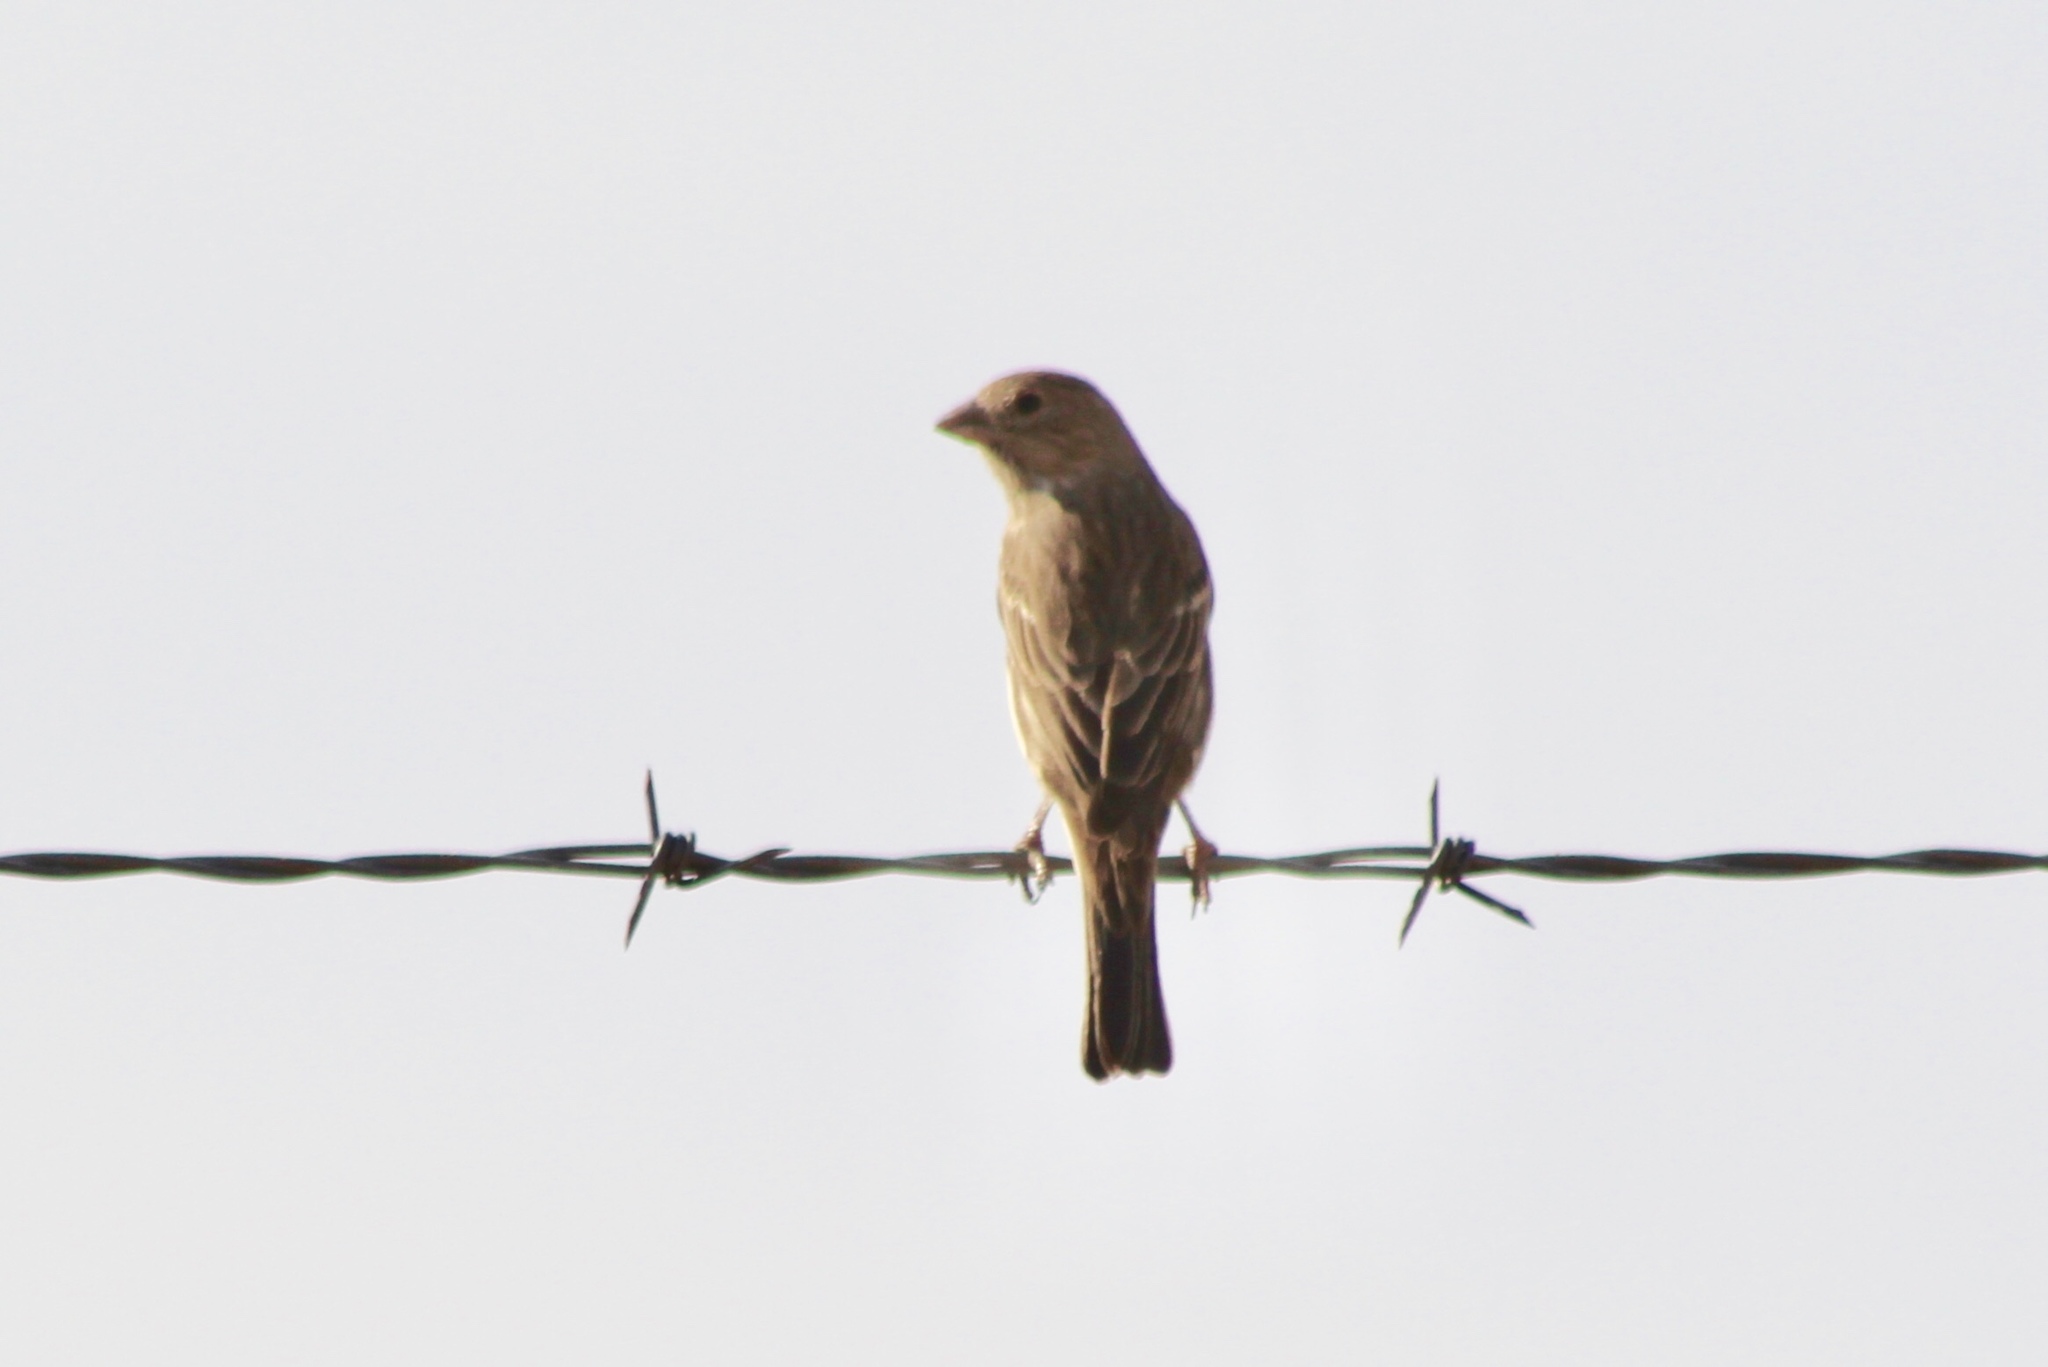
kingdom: Animalia
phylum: Chordata
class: Aves
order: Passeriformes
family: Fringillidae
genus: Haemorhous
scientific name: Haemorhous mexicanus
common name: House finch
